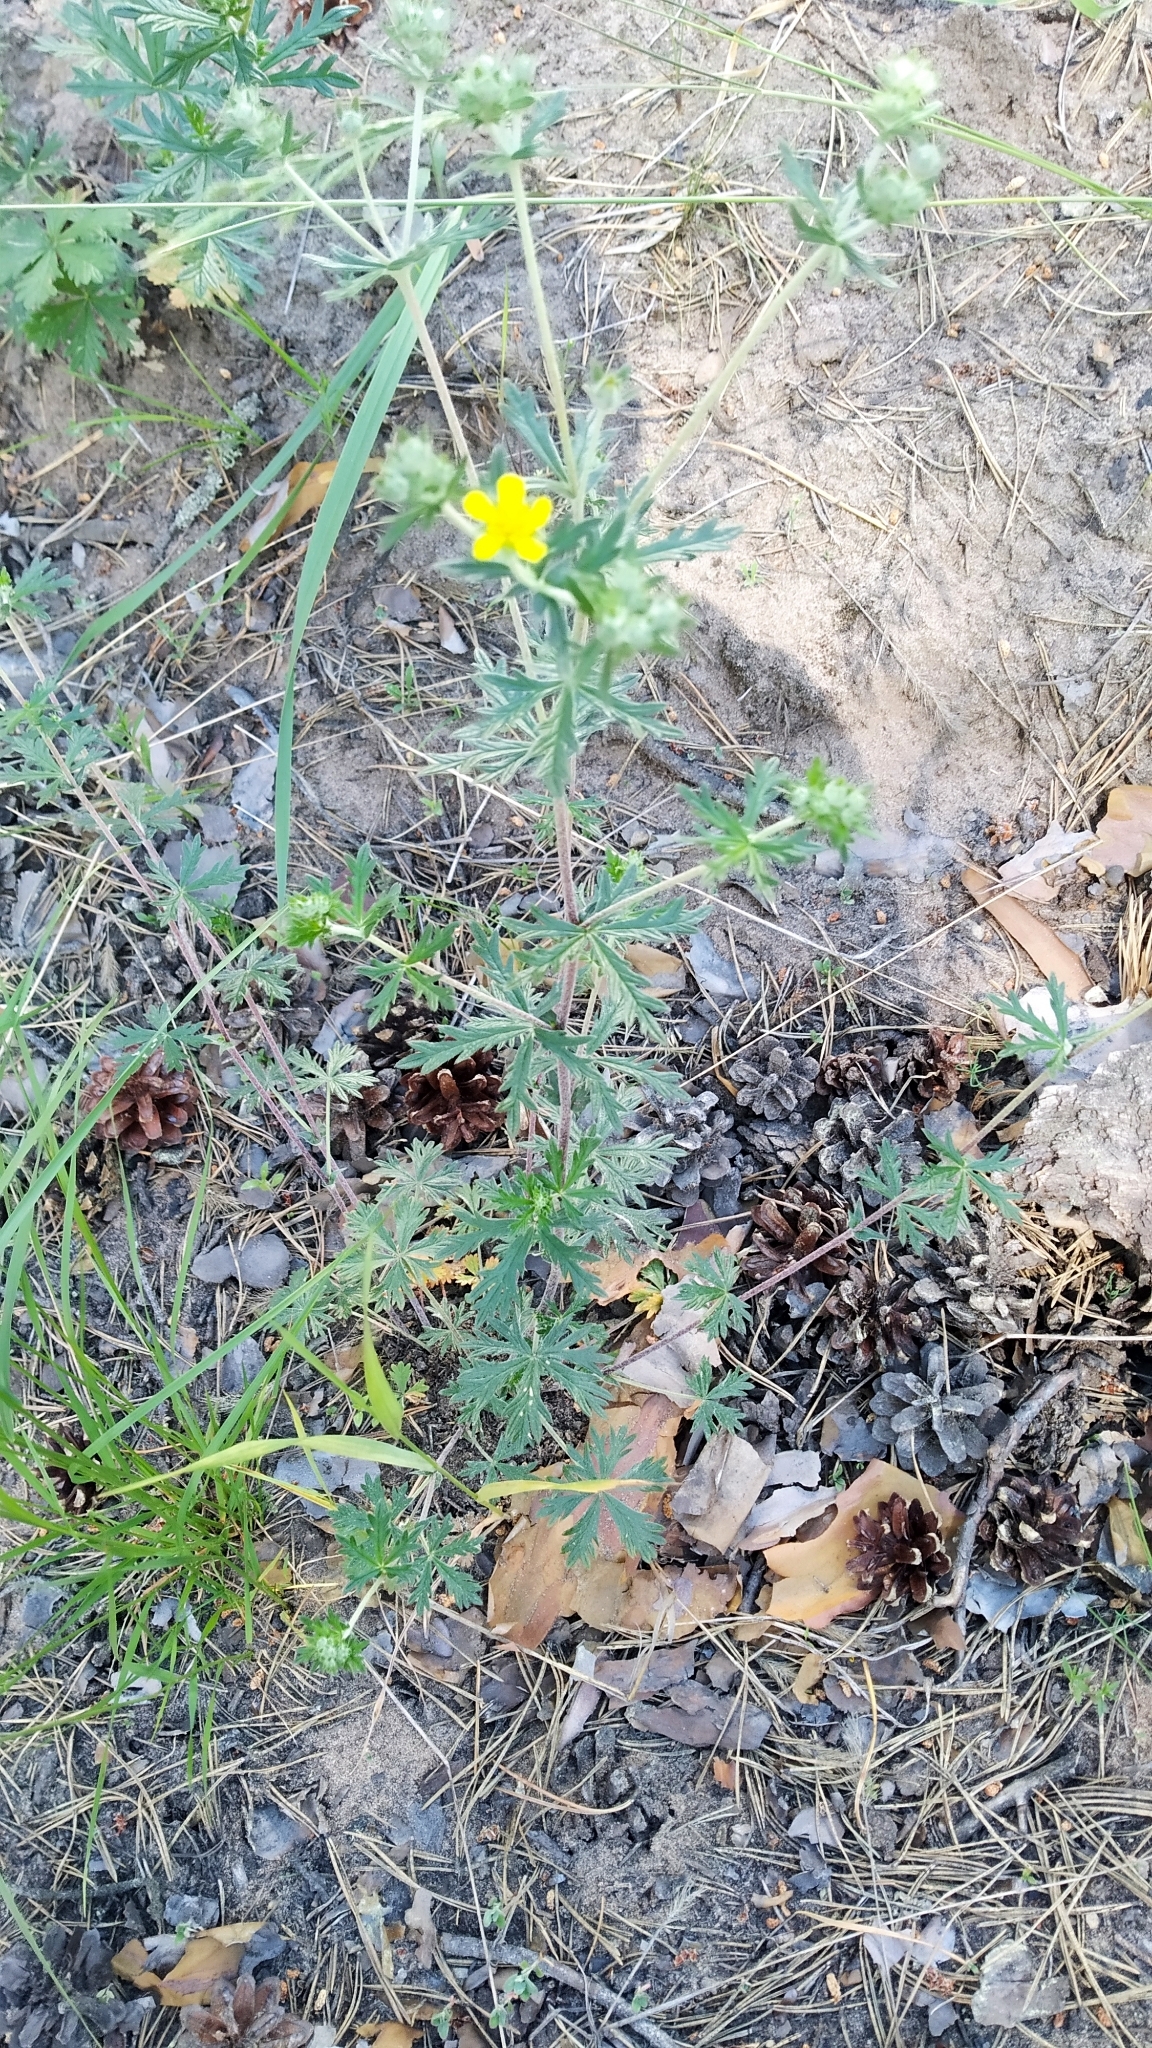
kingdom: Plantae
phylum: Tracheophyta
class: Magnoliopsida
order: Rosales
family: Rosaceae
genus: Potentilla
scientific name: Potentilla argentea
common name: Hoary cinquefoil
